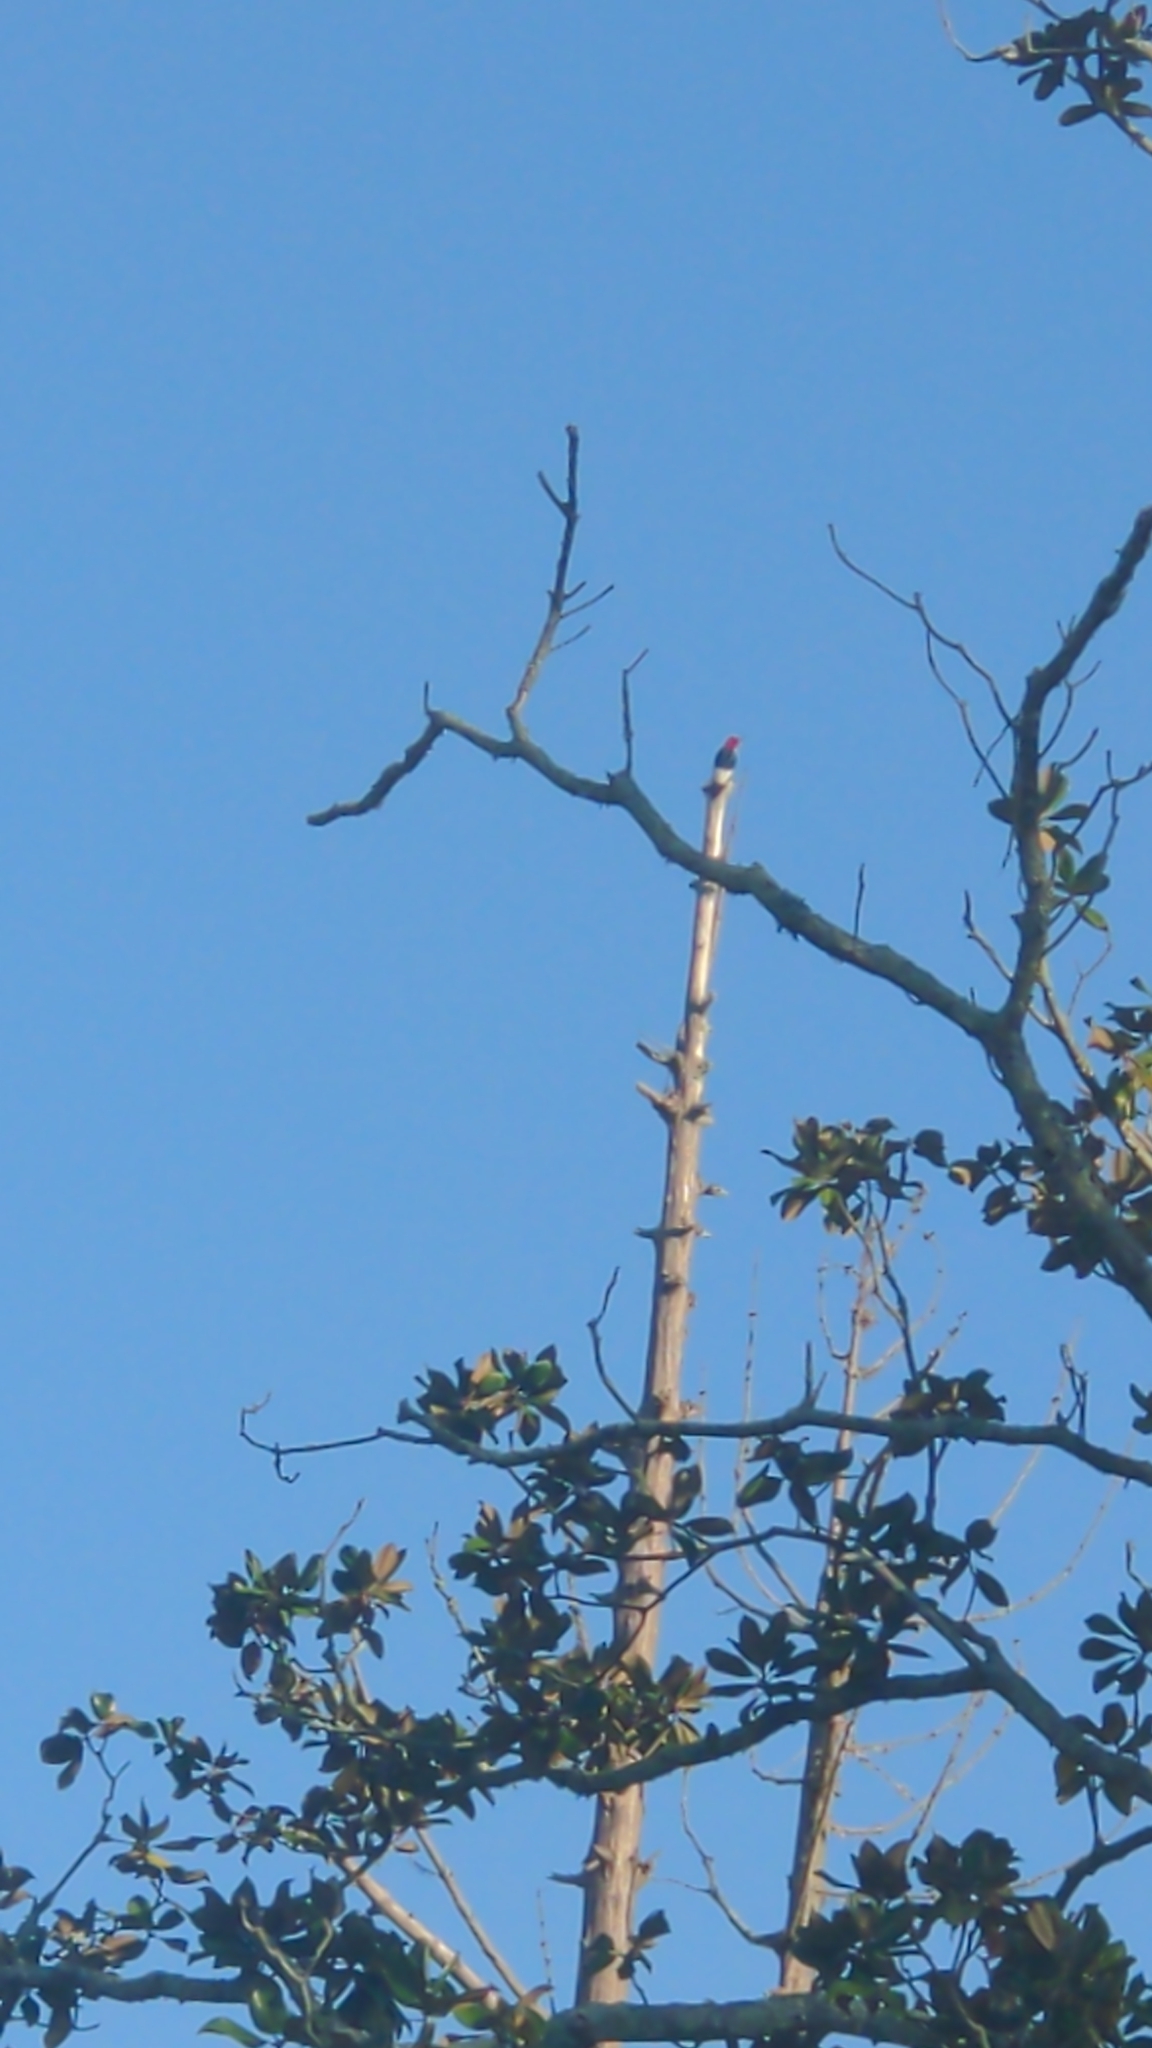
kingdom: Animalia
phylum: Chordata
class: Aves
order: Piciformes
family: Picidae
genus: Melanerpes
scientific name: Melanerpes erythrocephalus
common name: Red-headed woodpecker
